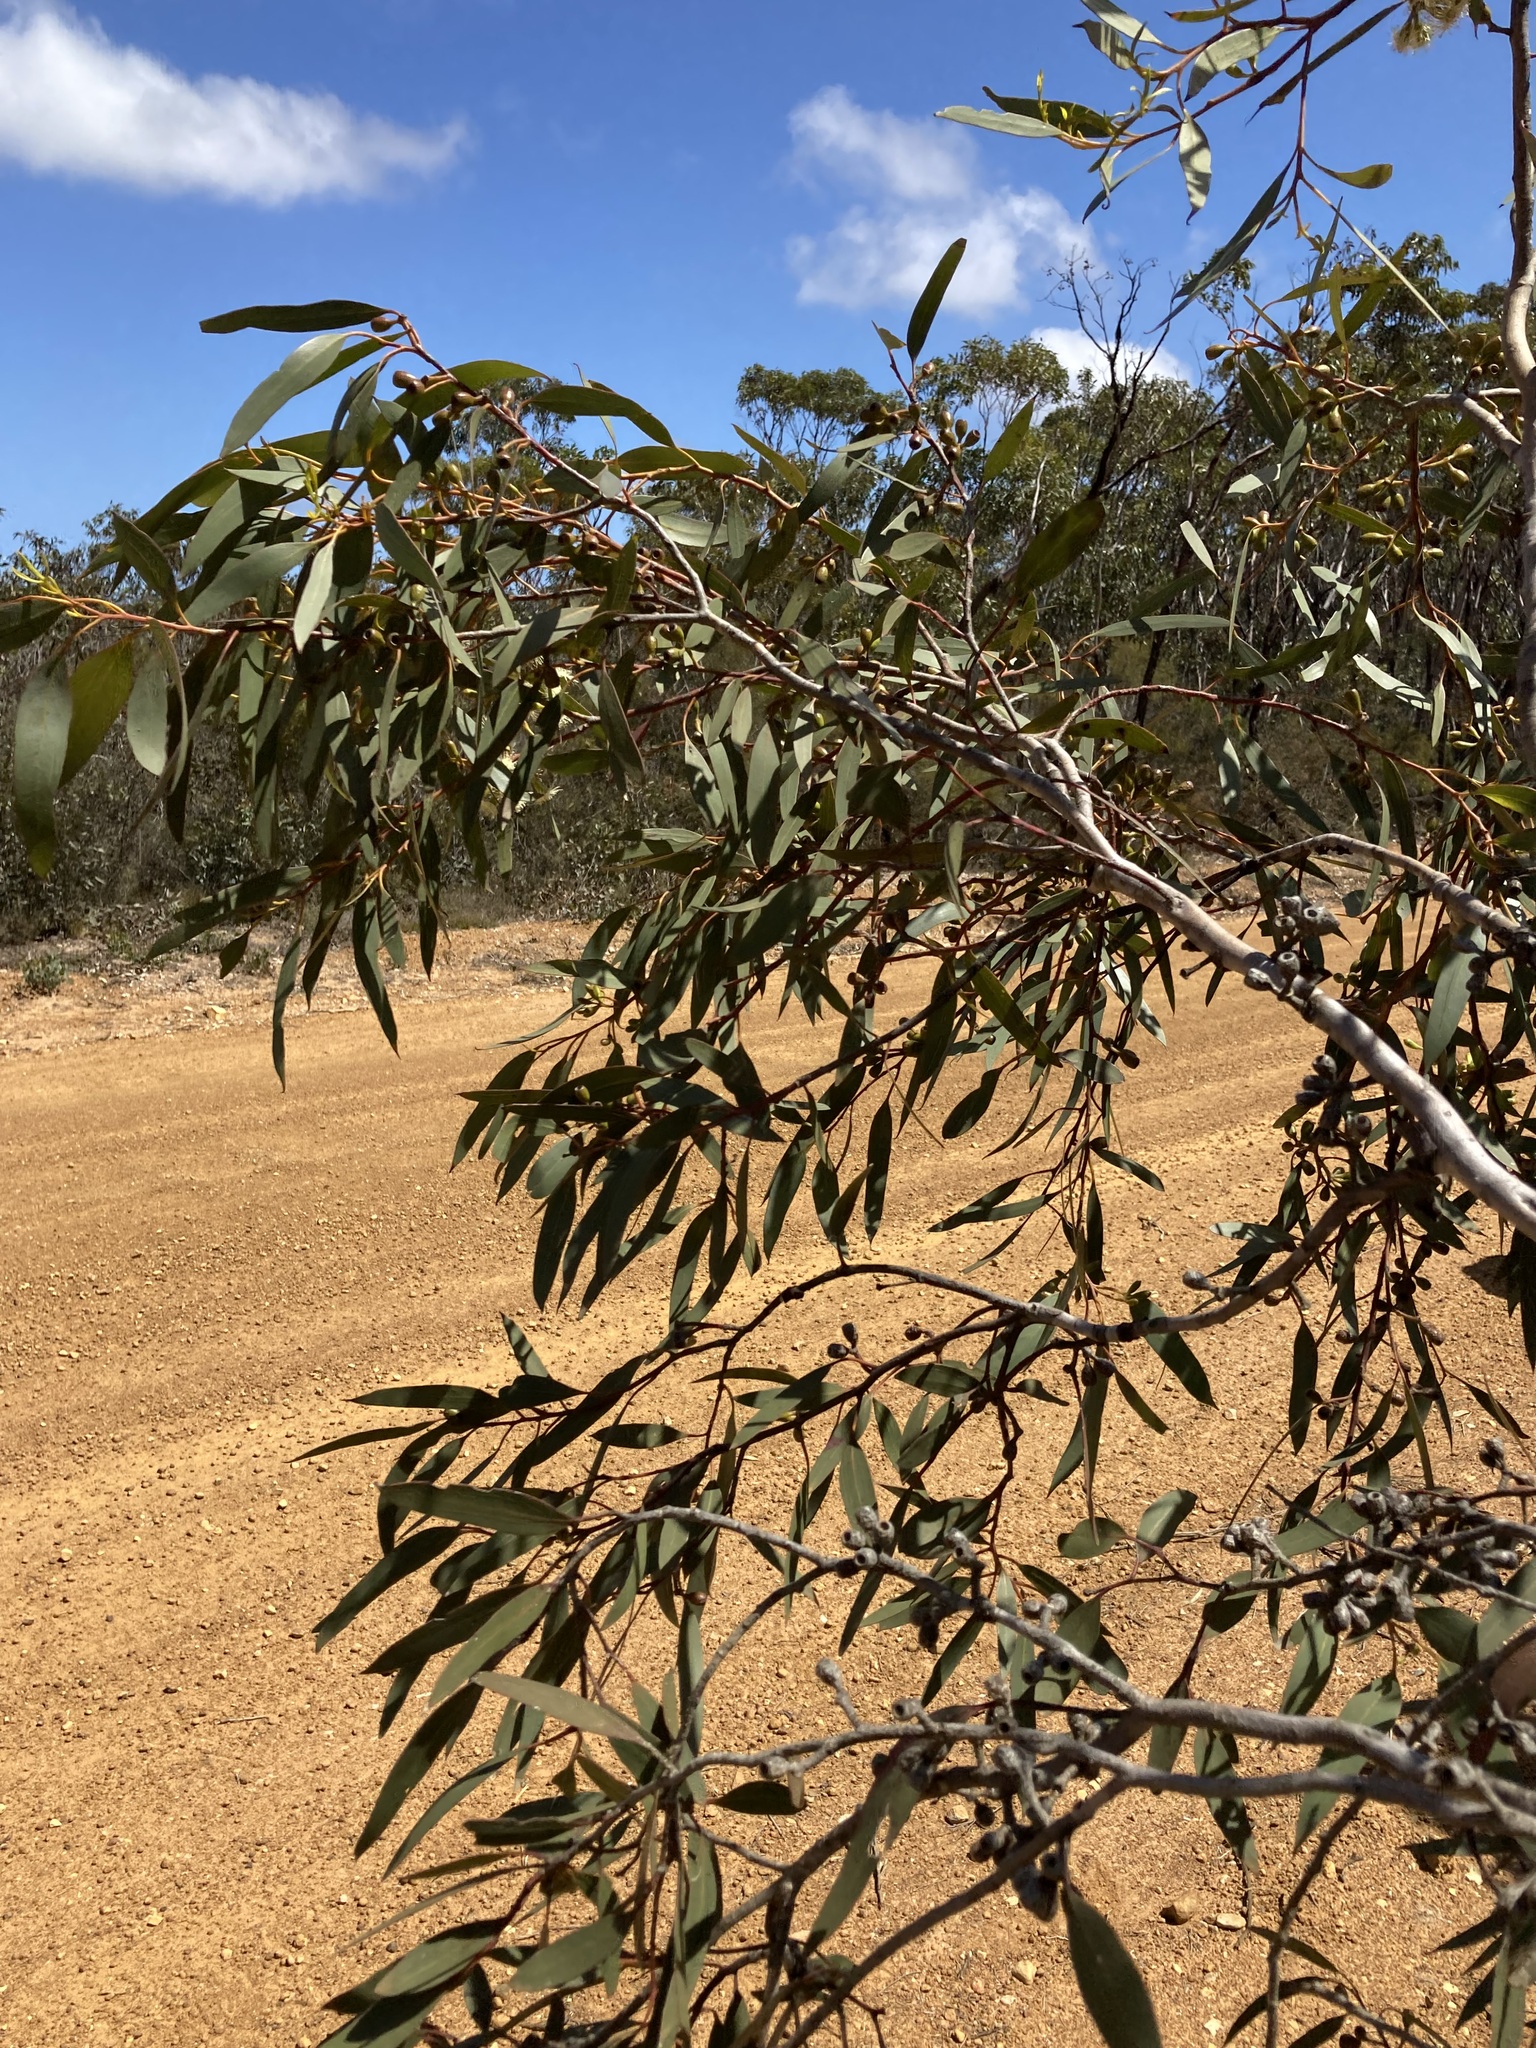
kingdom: Plantae
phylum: Tracheophyta
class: Magnoliopsida
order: Myrtales
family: Myrtaceae
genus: Eucalyptus
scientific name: Eucalyptus leptocalyx
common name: Hopetoun mallee
